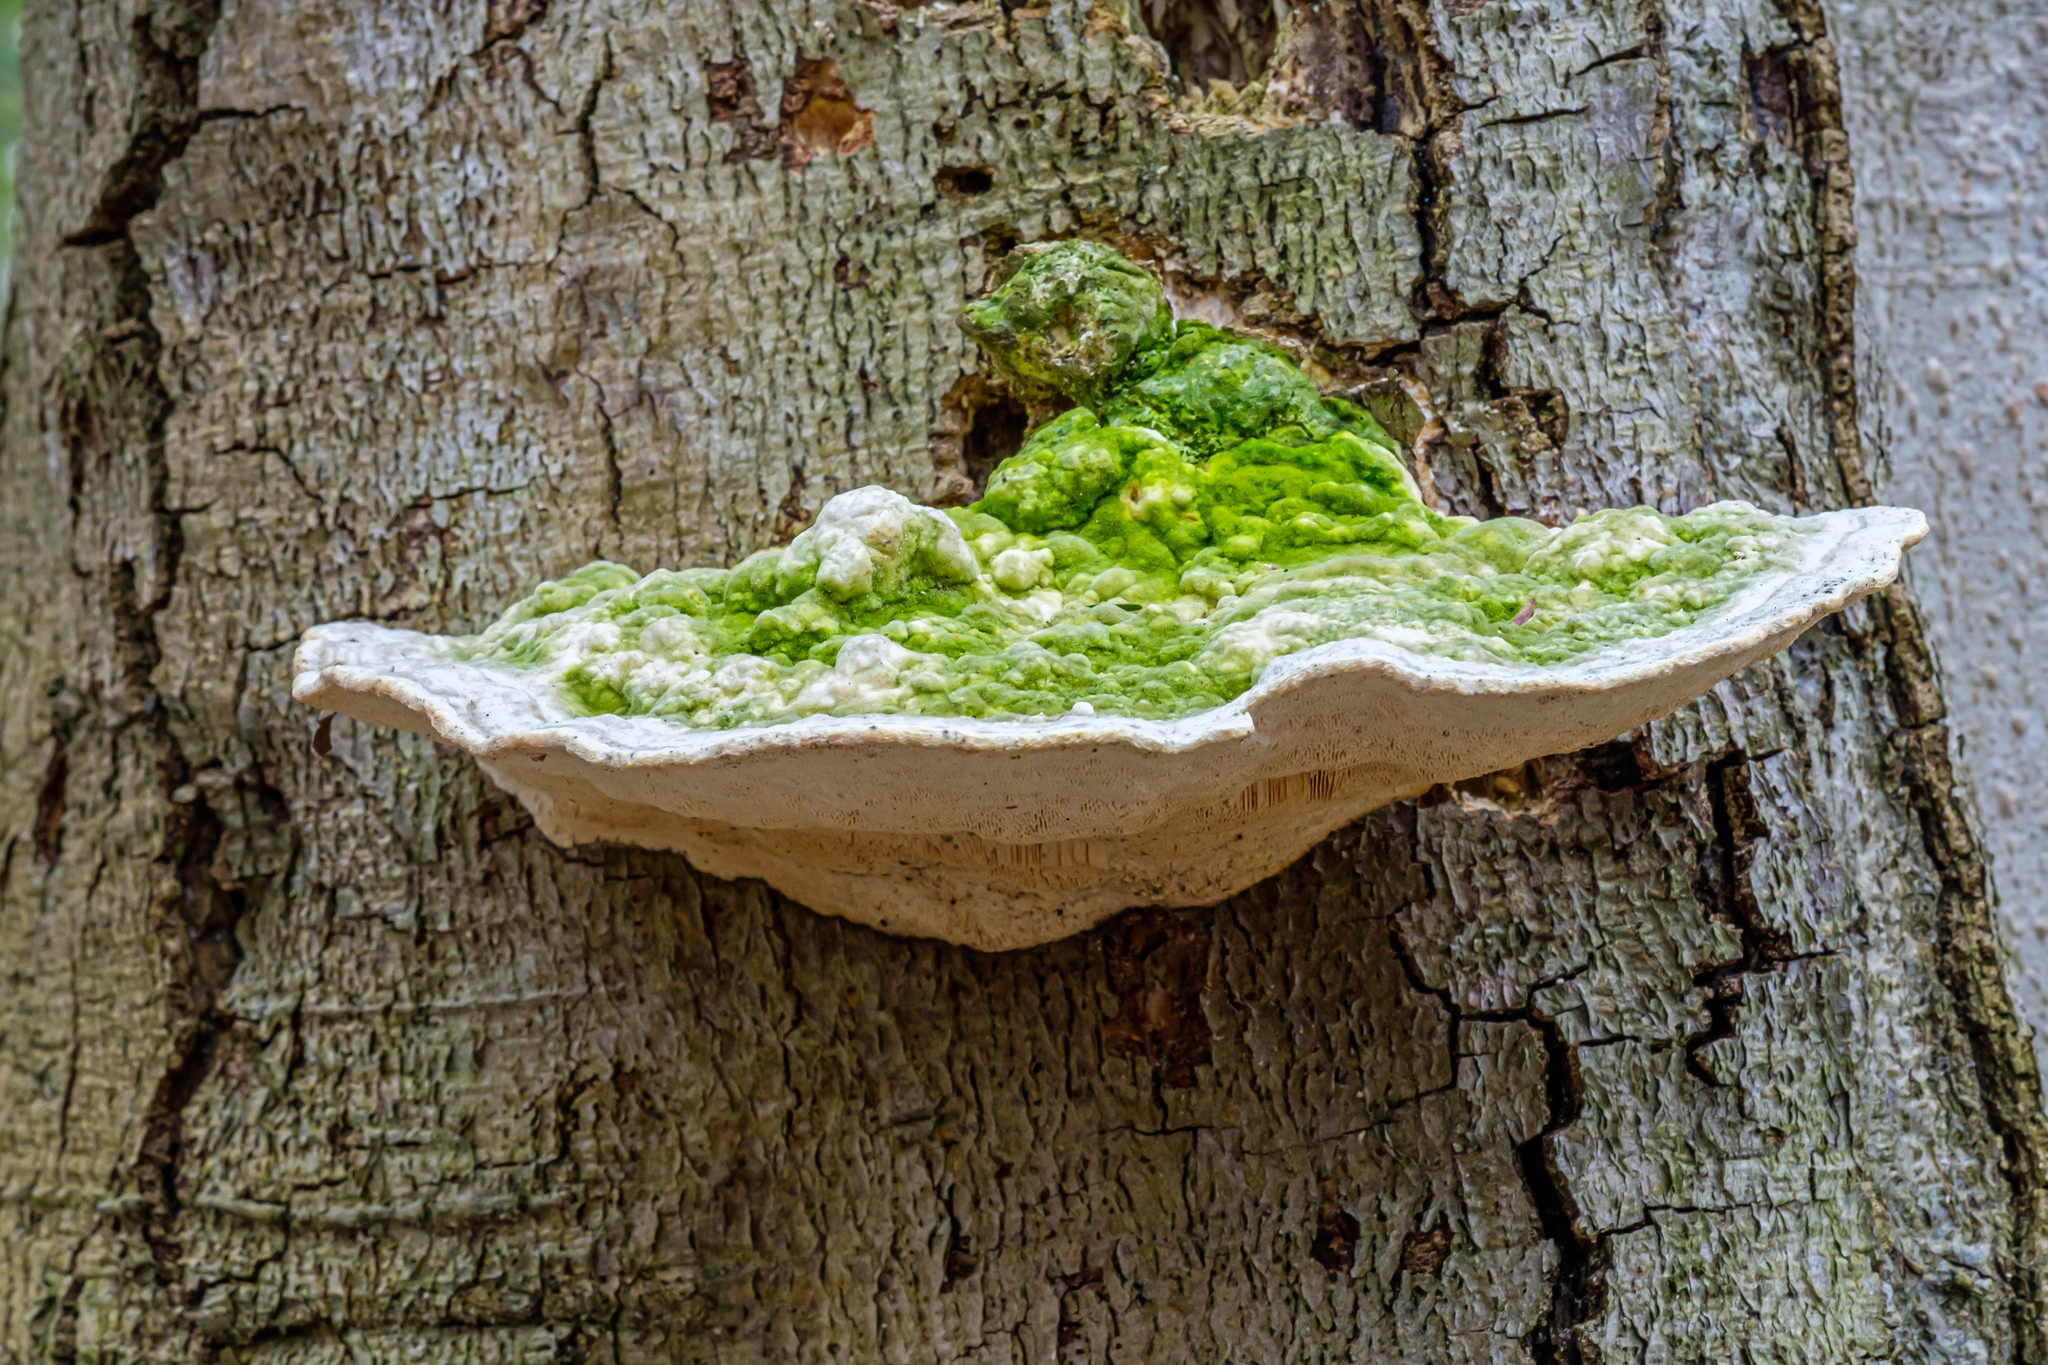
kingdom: Fungi
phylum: Basidiomycota
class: Agaricomycetes
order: Polyporales
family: Polyporaceae
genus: Trametes
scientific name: Trametes gibbosa
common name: Lumpy bracket
